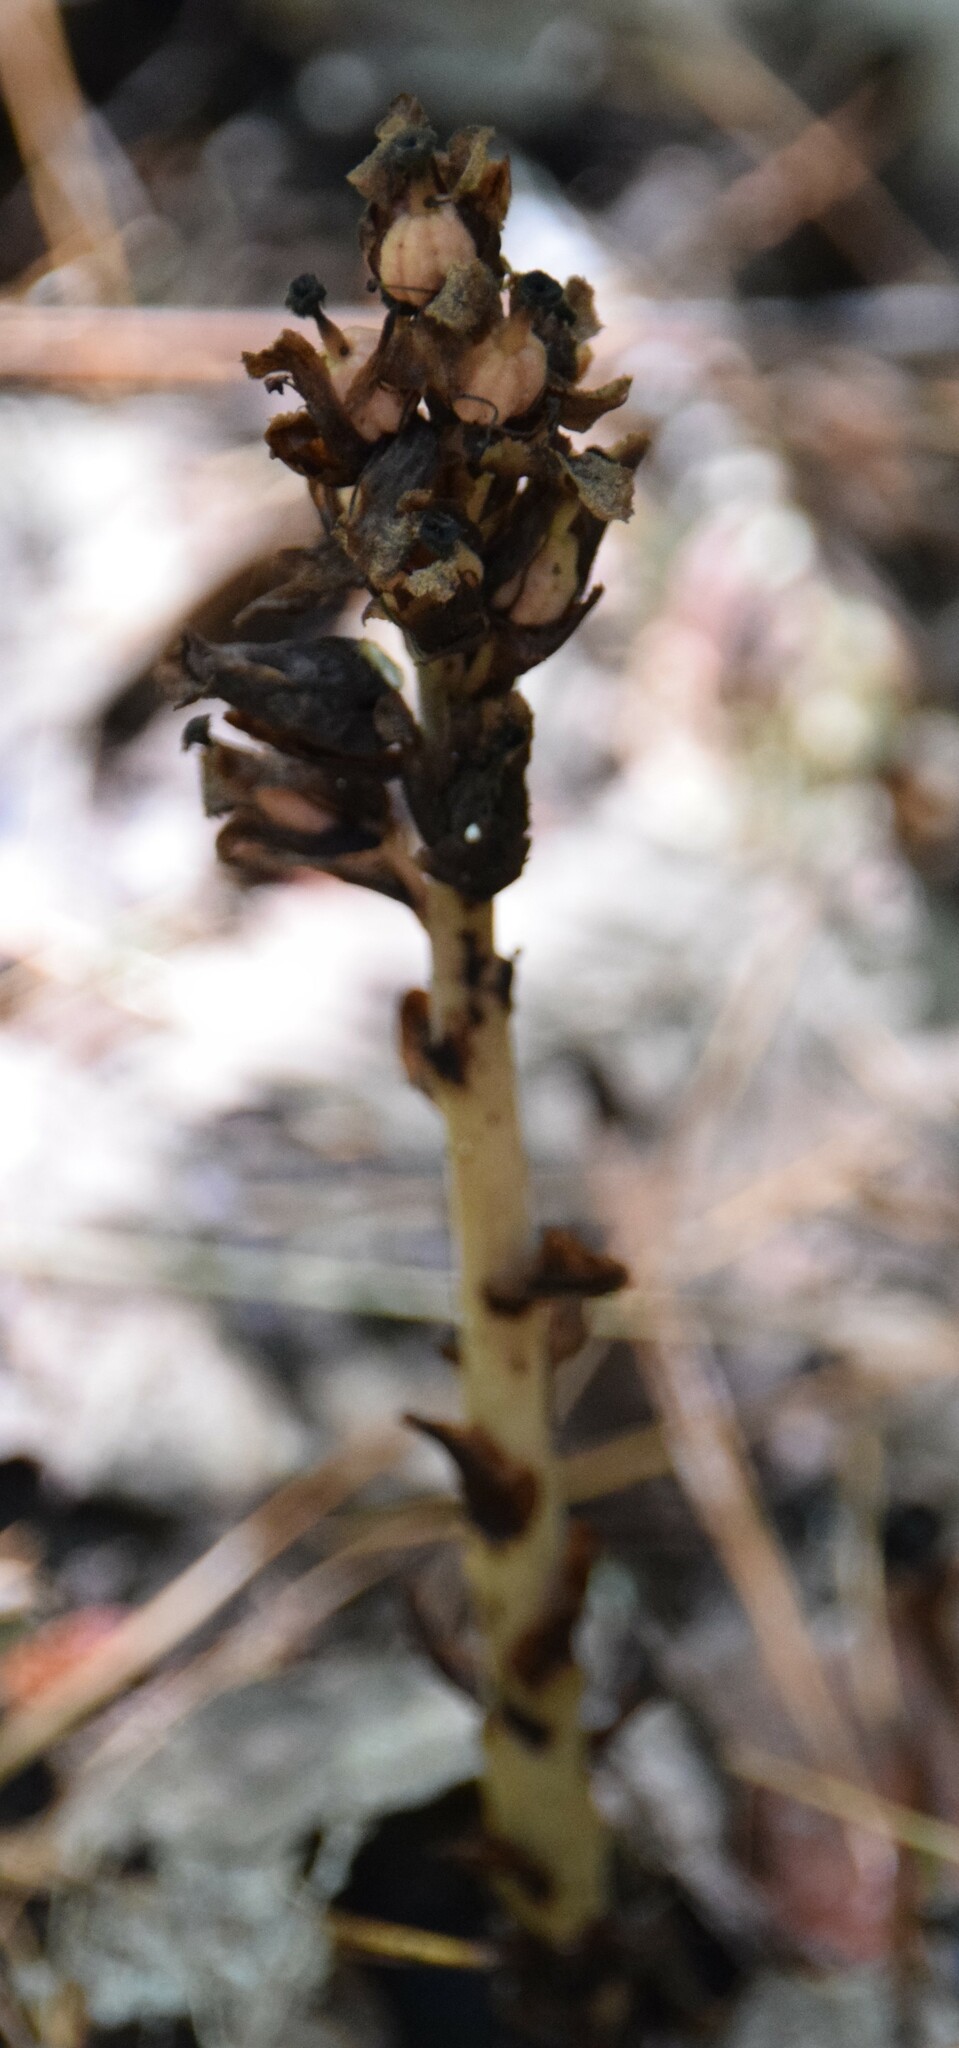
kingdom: Plantae
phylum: Tracheophyta
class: Magnoliopsida
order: Ericales
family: Ericaceae
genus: Hypopitys
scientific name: Hypopitys monotropa
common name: Yellow bird's-nest
